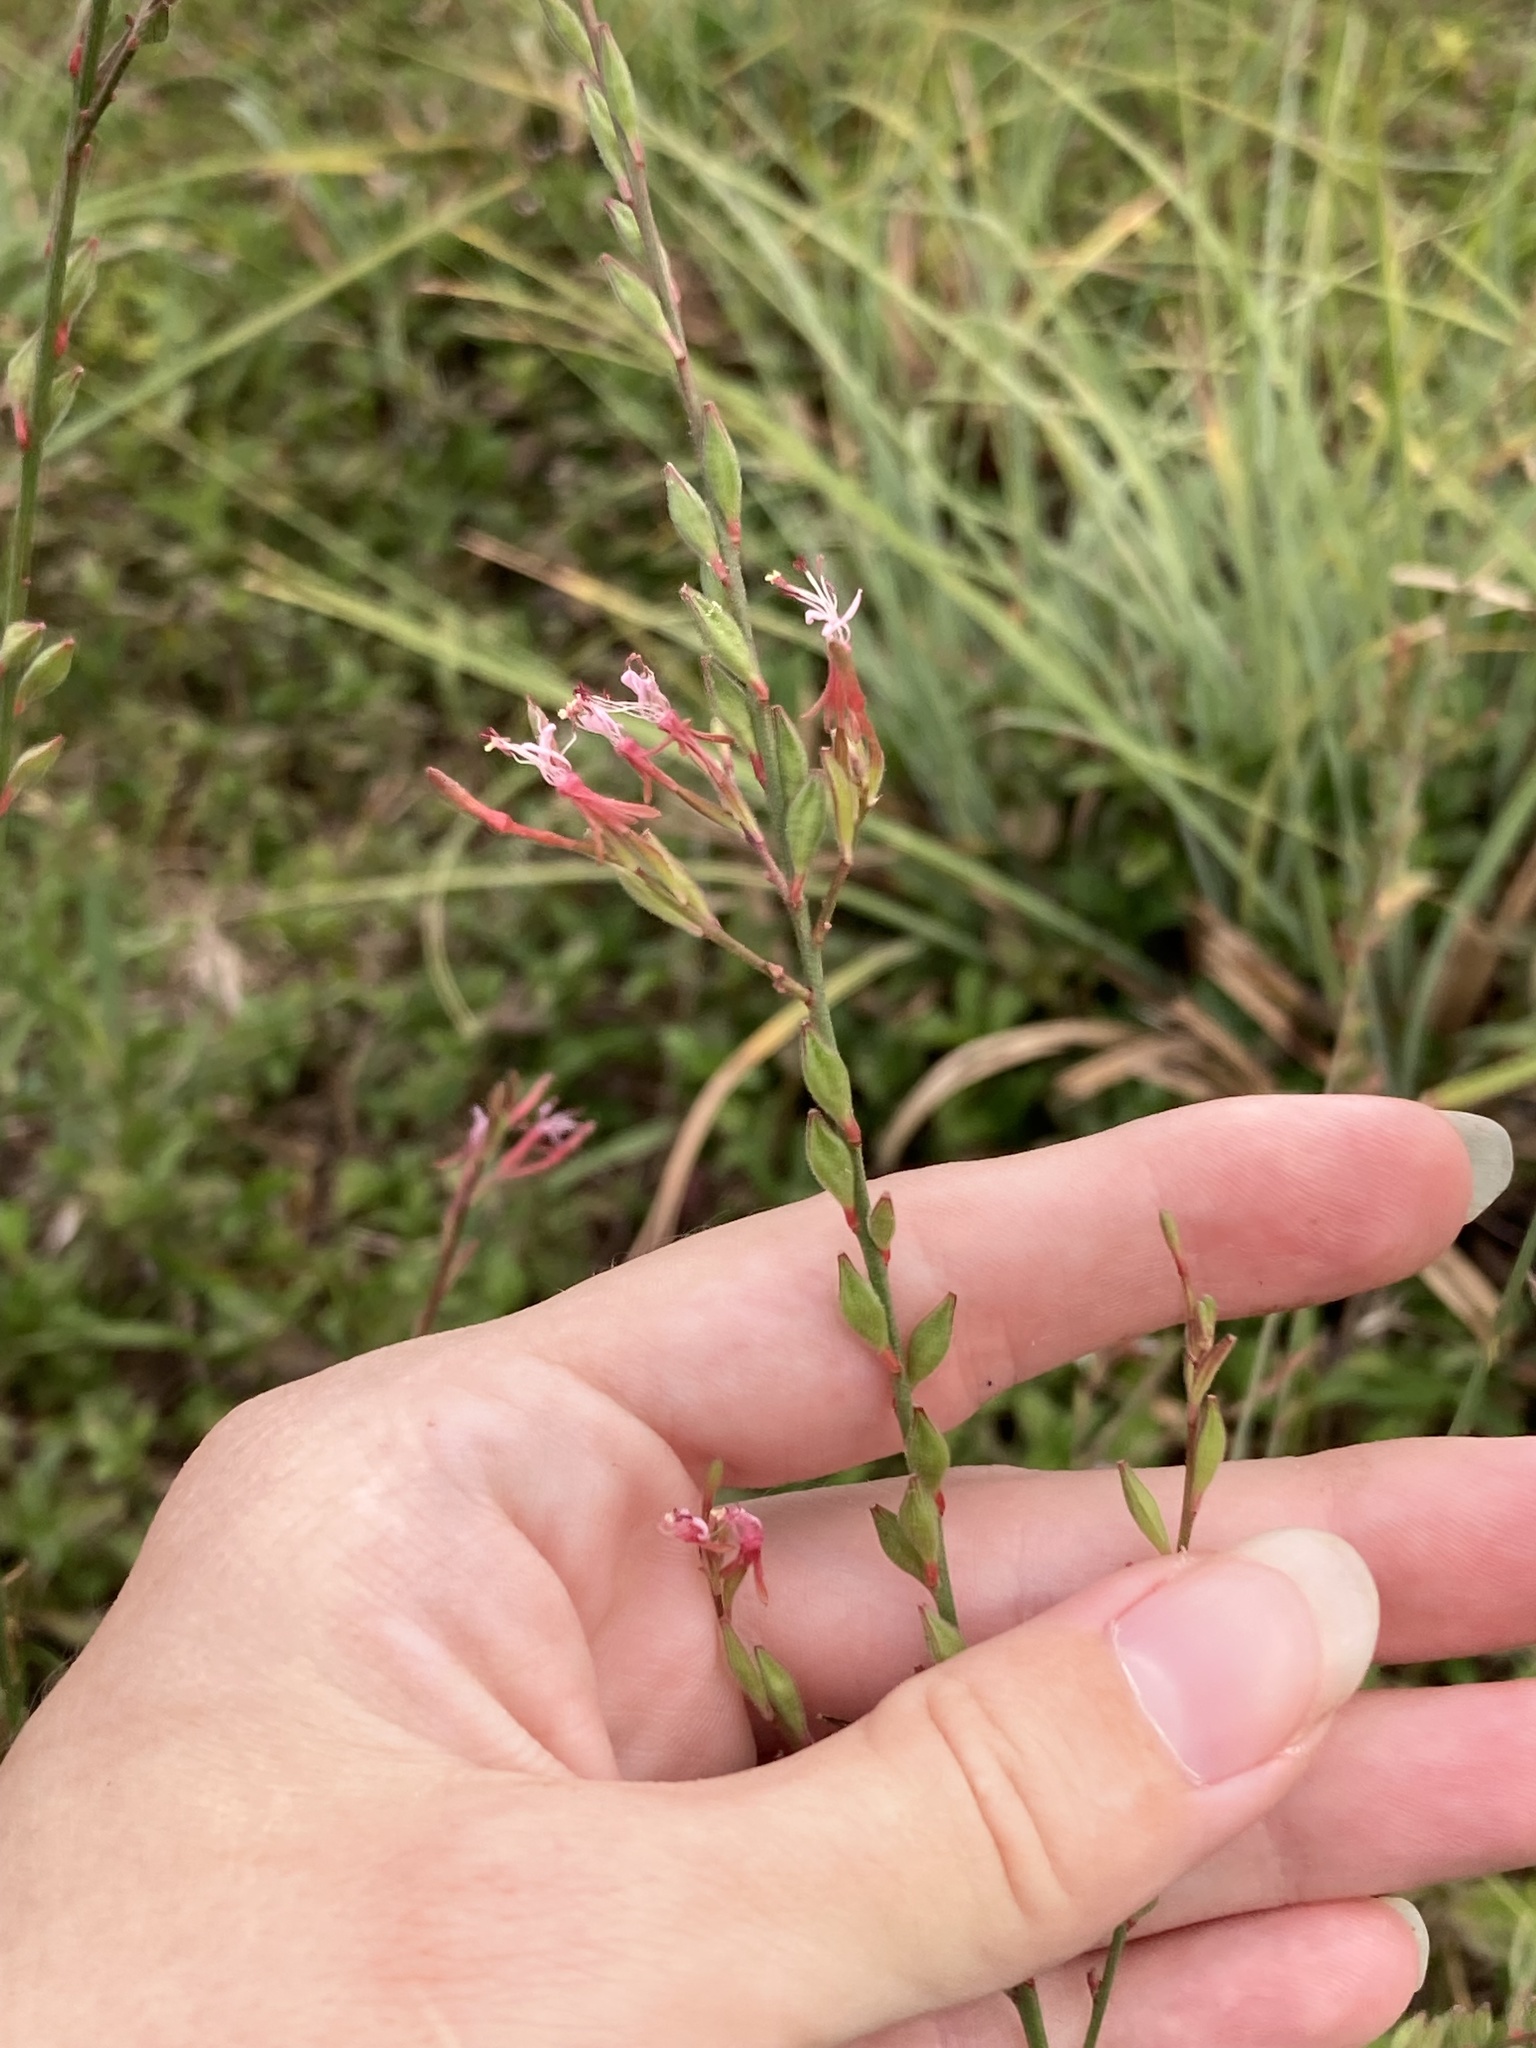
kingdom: Plantae
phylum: Tracheophyta
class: Magnoliopsida
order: Myrtales
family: Onagraceae
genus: Oenothera
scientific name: Oenothera simulans
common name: Southern beeblossom
